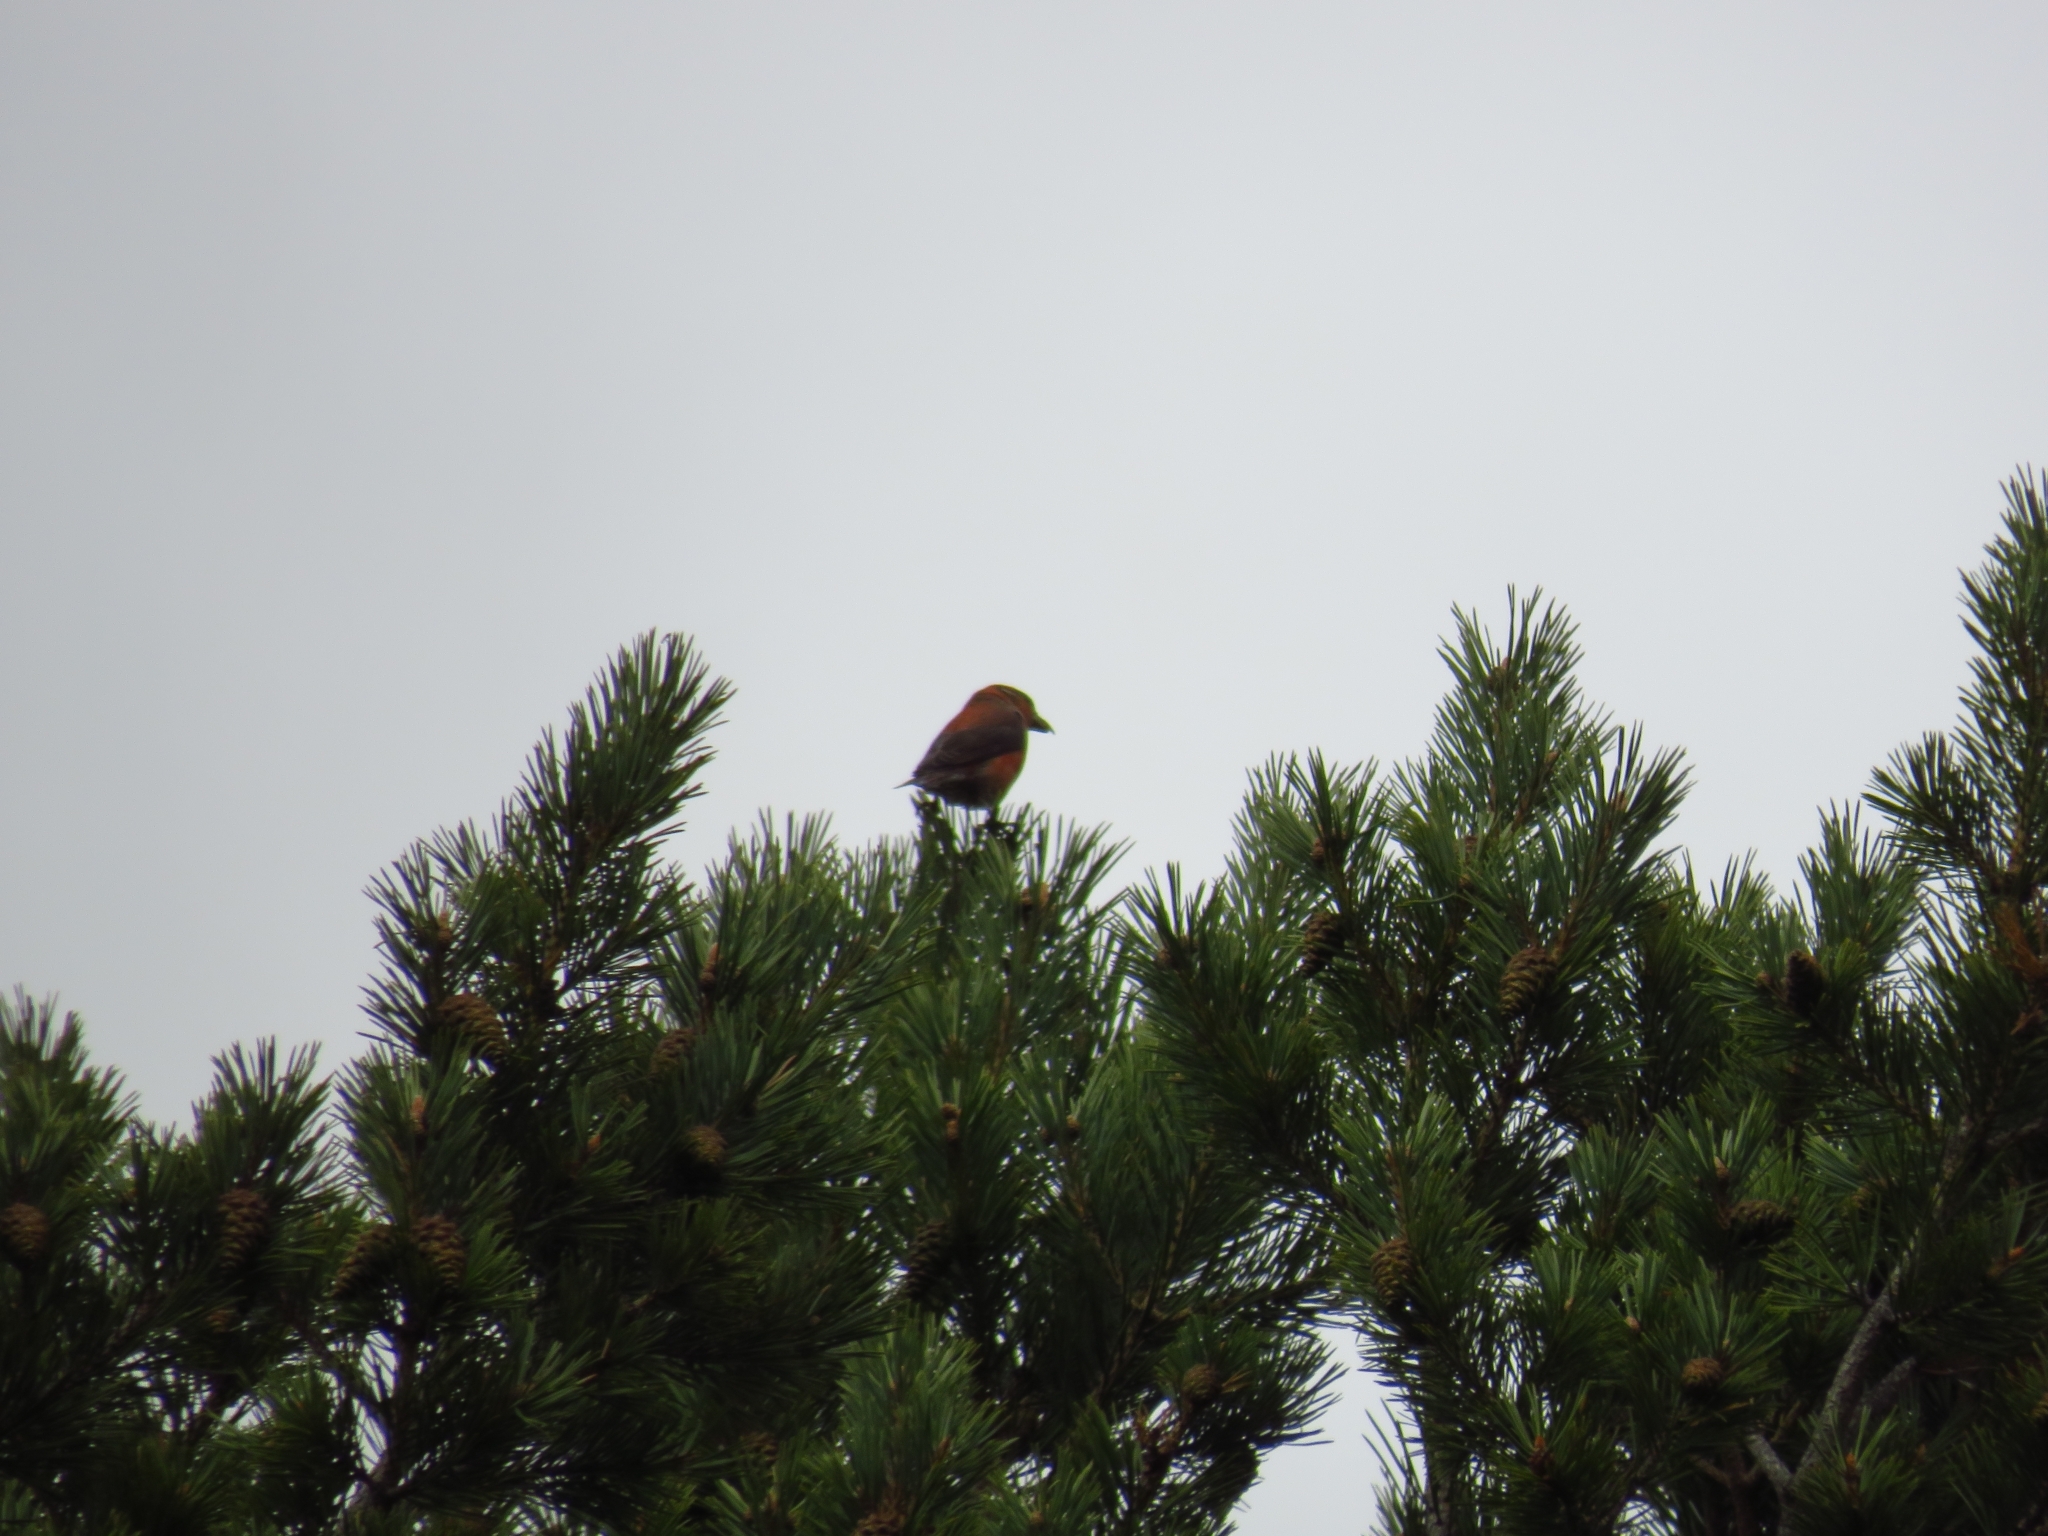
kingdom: Animalia
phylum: Chordata
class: Aves
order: Passeriformes
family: Fringillidae
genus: Loxia
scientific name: Loxia curvirostra
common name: Red crossbill
